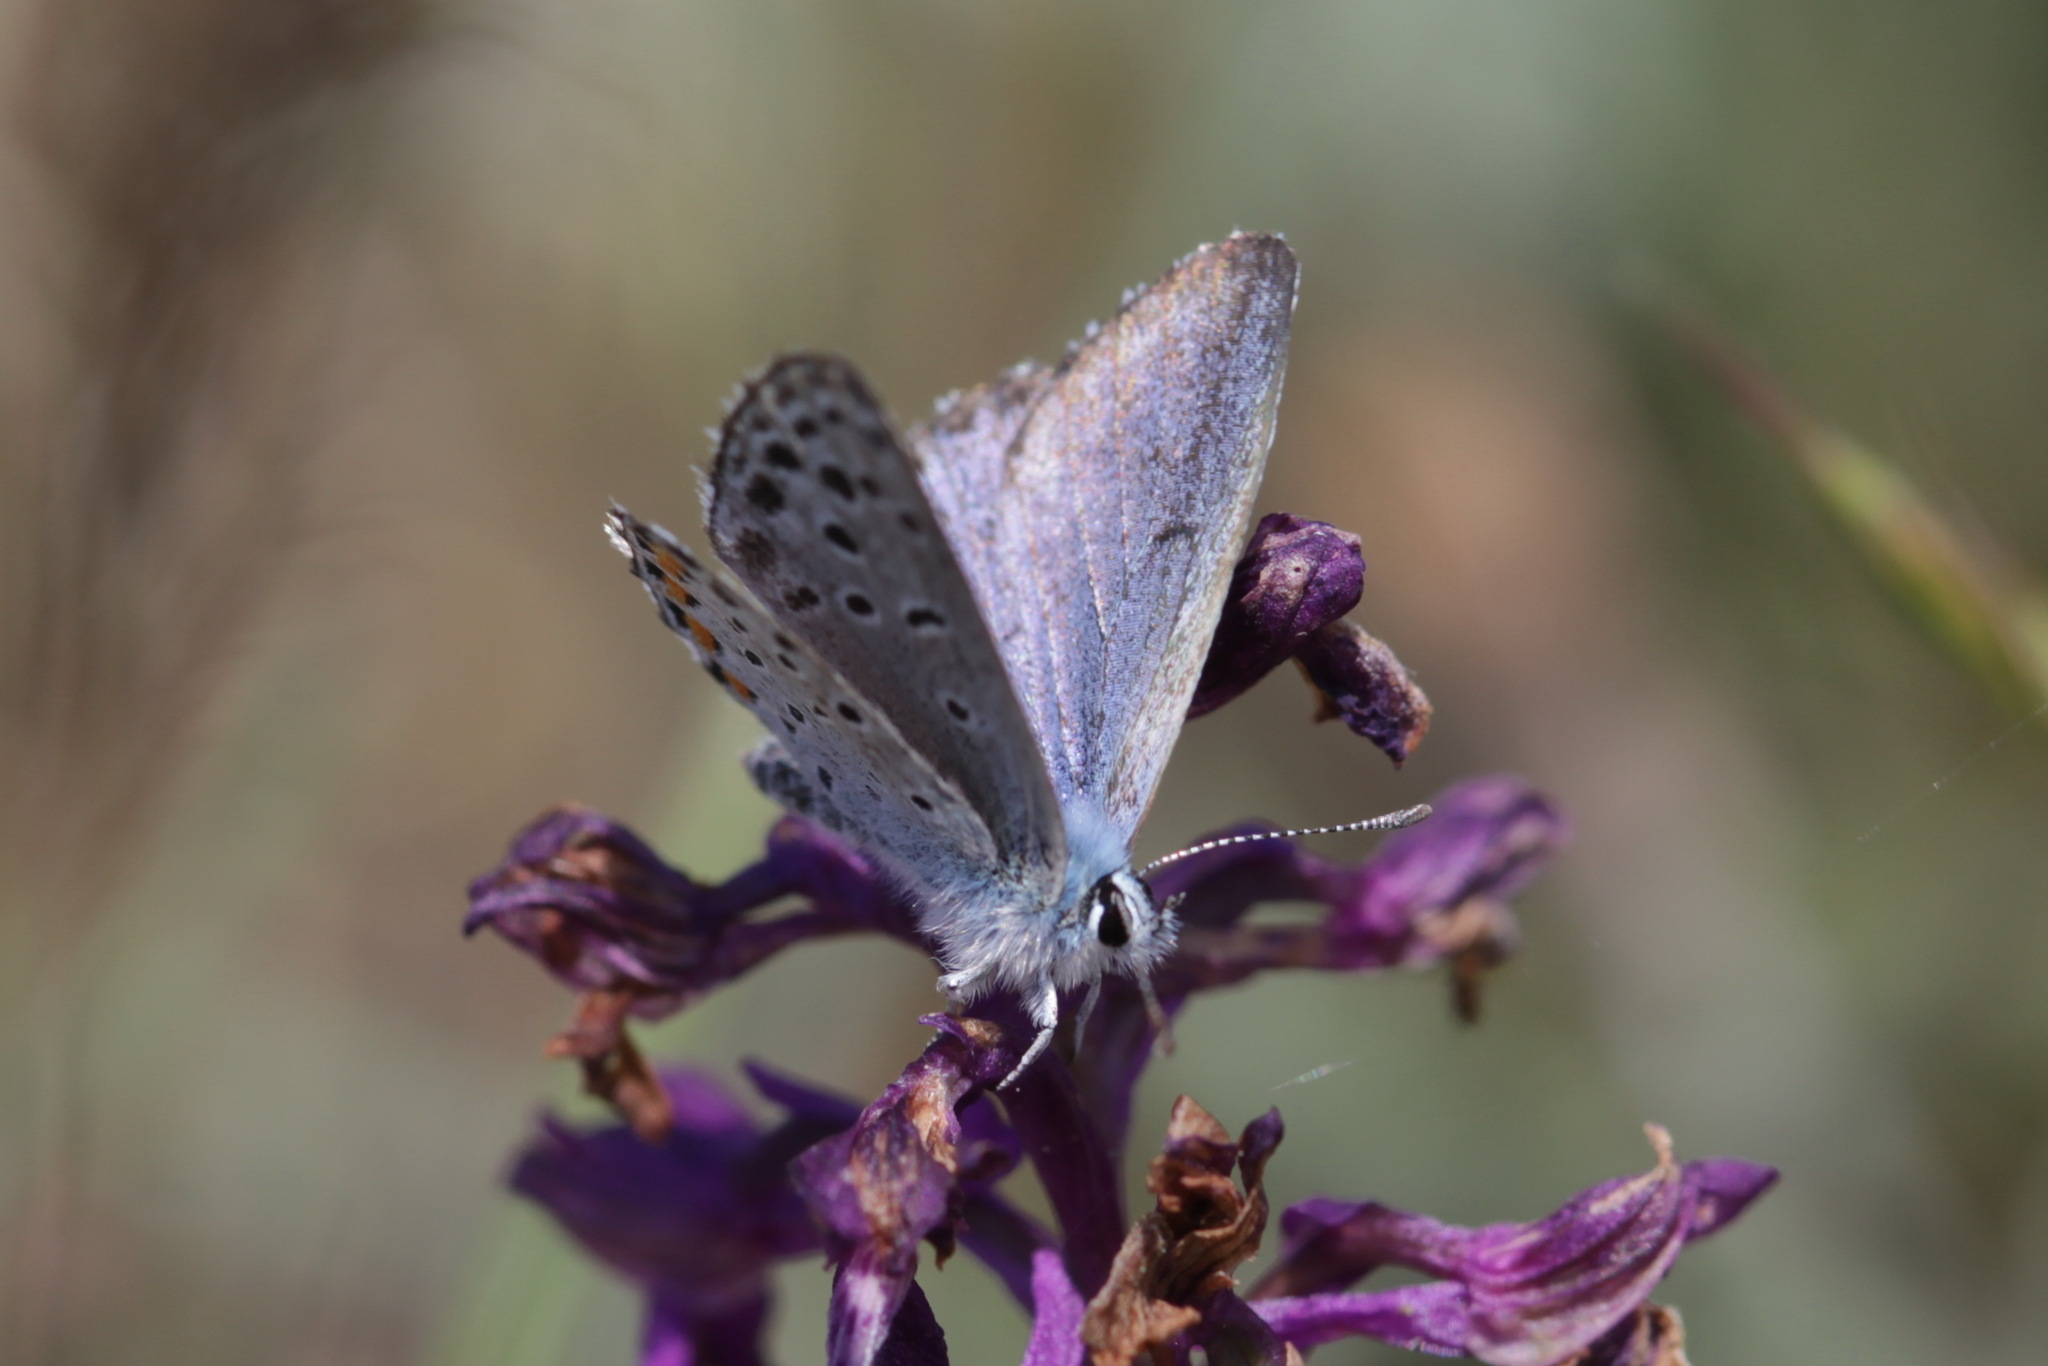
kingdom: Animalia
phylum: Arthropoda
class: Insecta
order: Lepidoptera
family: Lycaenidae
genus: Pseudophilotes
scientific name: Pseudophilotes baton
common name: Baton blue
